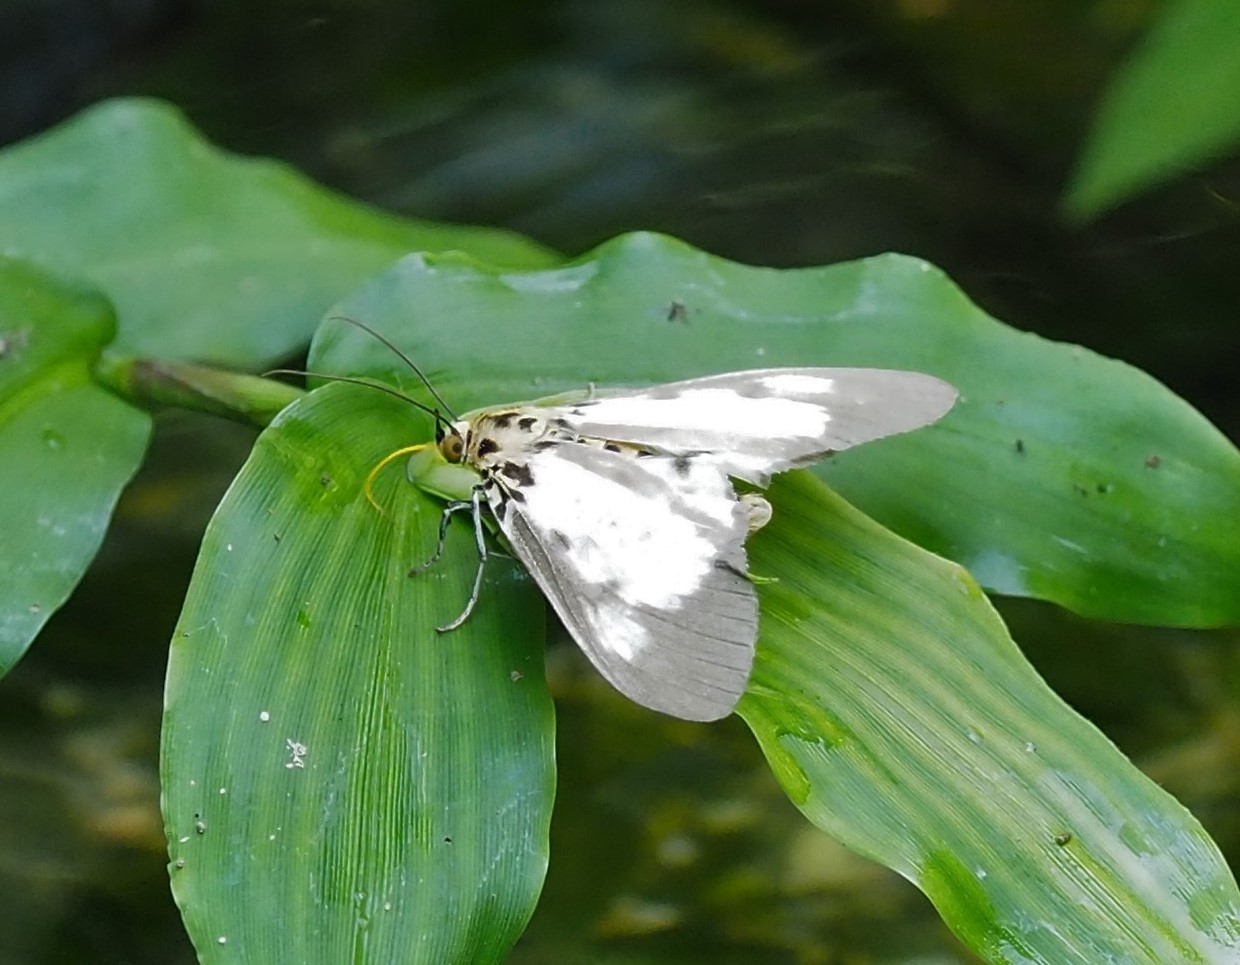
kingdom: Animalia
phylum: Arthropoda
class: Insecta
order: Lepidoptera
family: Erebidae
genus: Asota
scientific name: Asota plana
